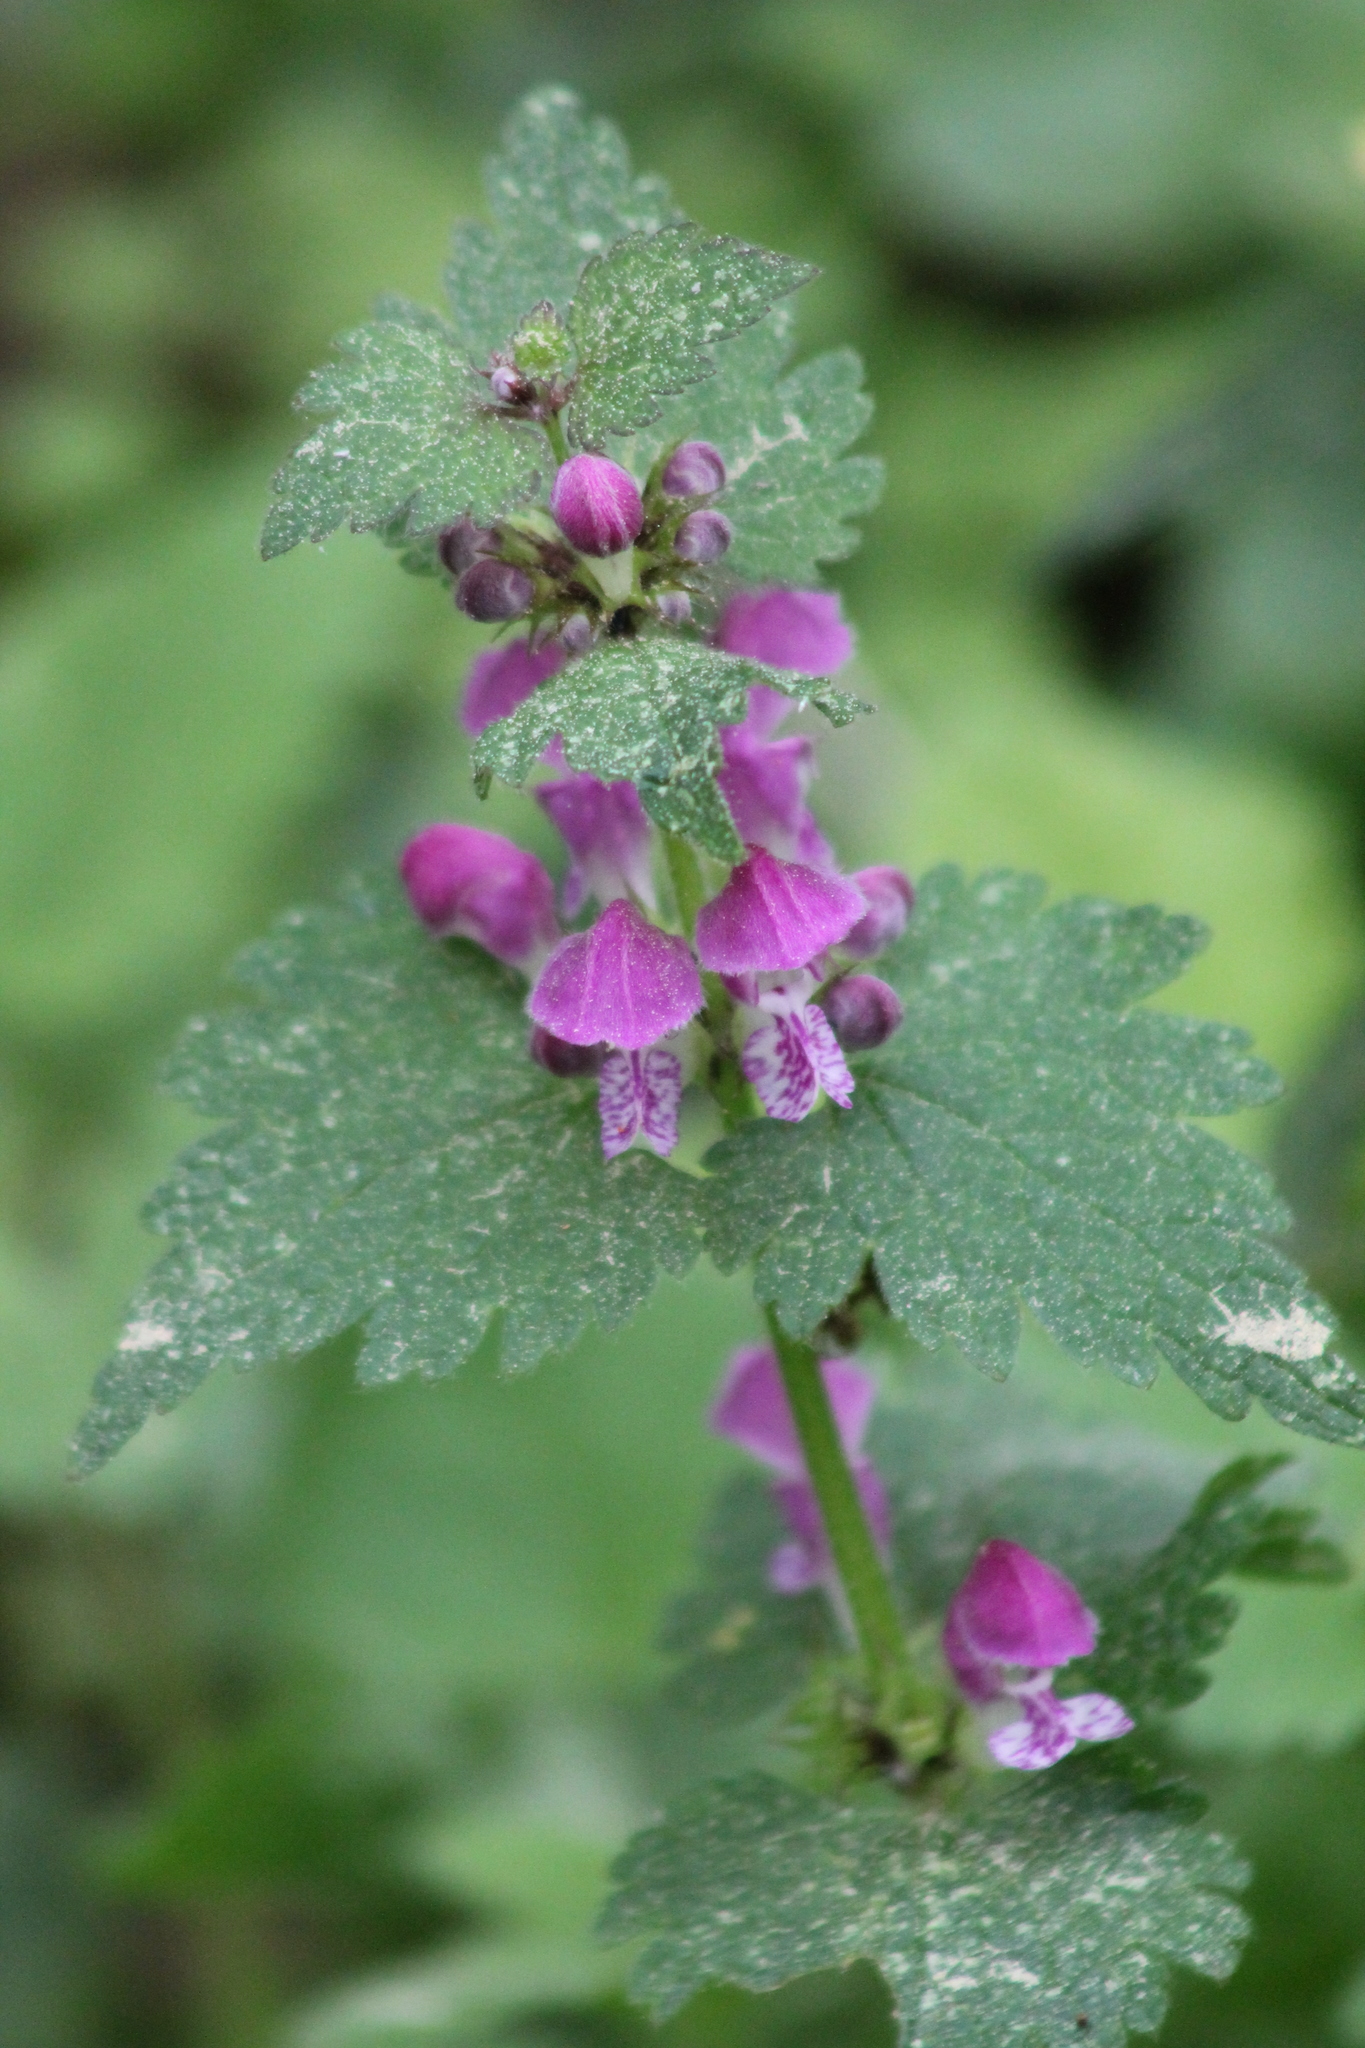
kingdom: Plantae
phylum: Tracheophyta
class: Magnoliopsida
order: Lamiales
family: Lamiaceae
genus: Lamium
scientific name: Lamium maculatum
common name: Spotted dead-nettle
